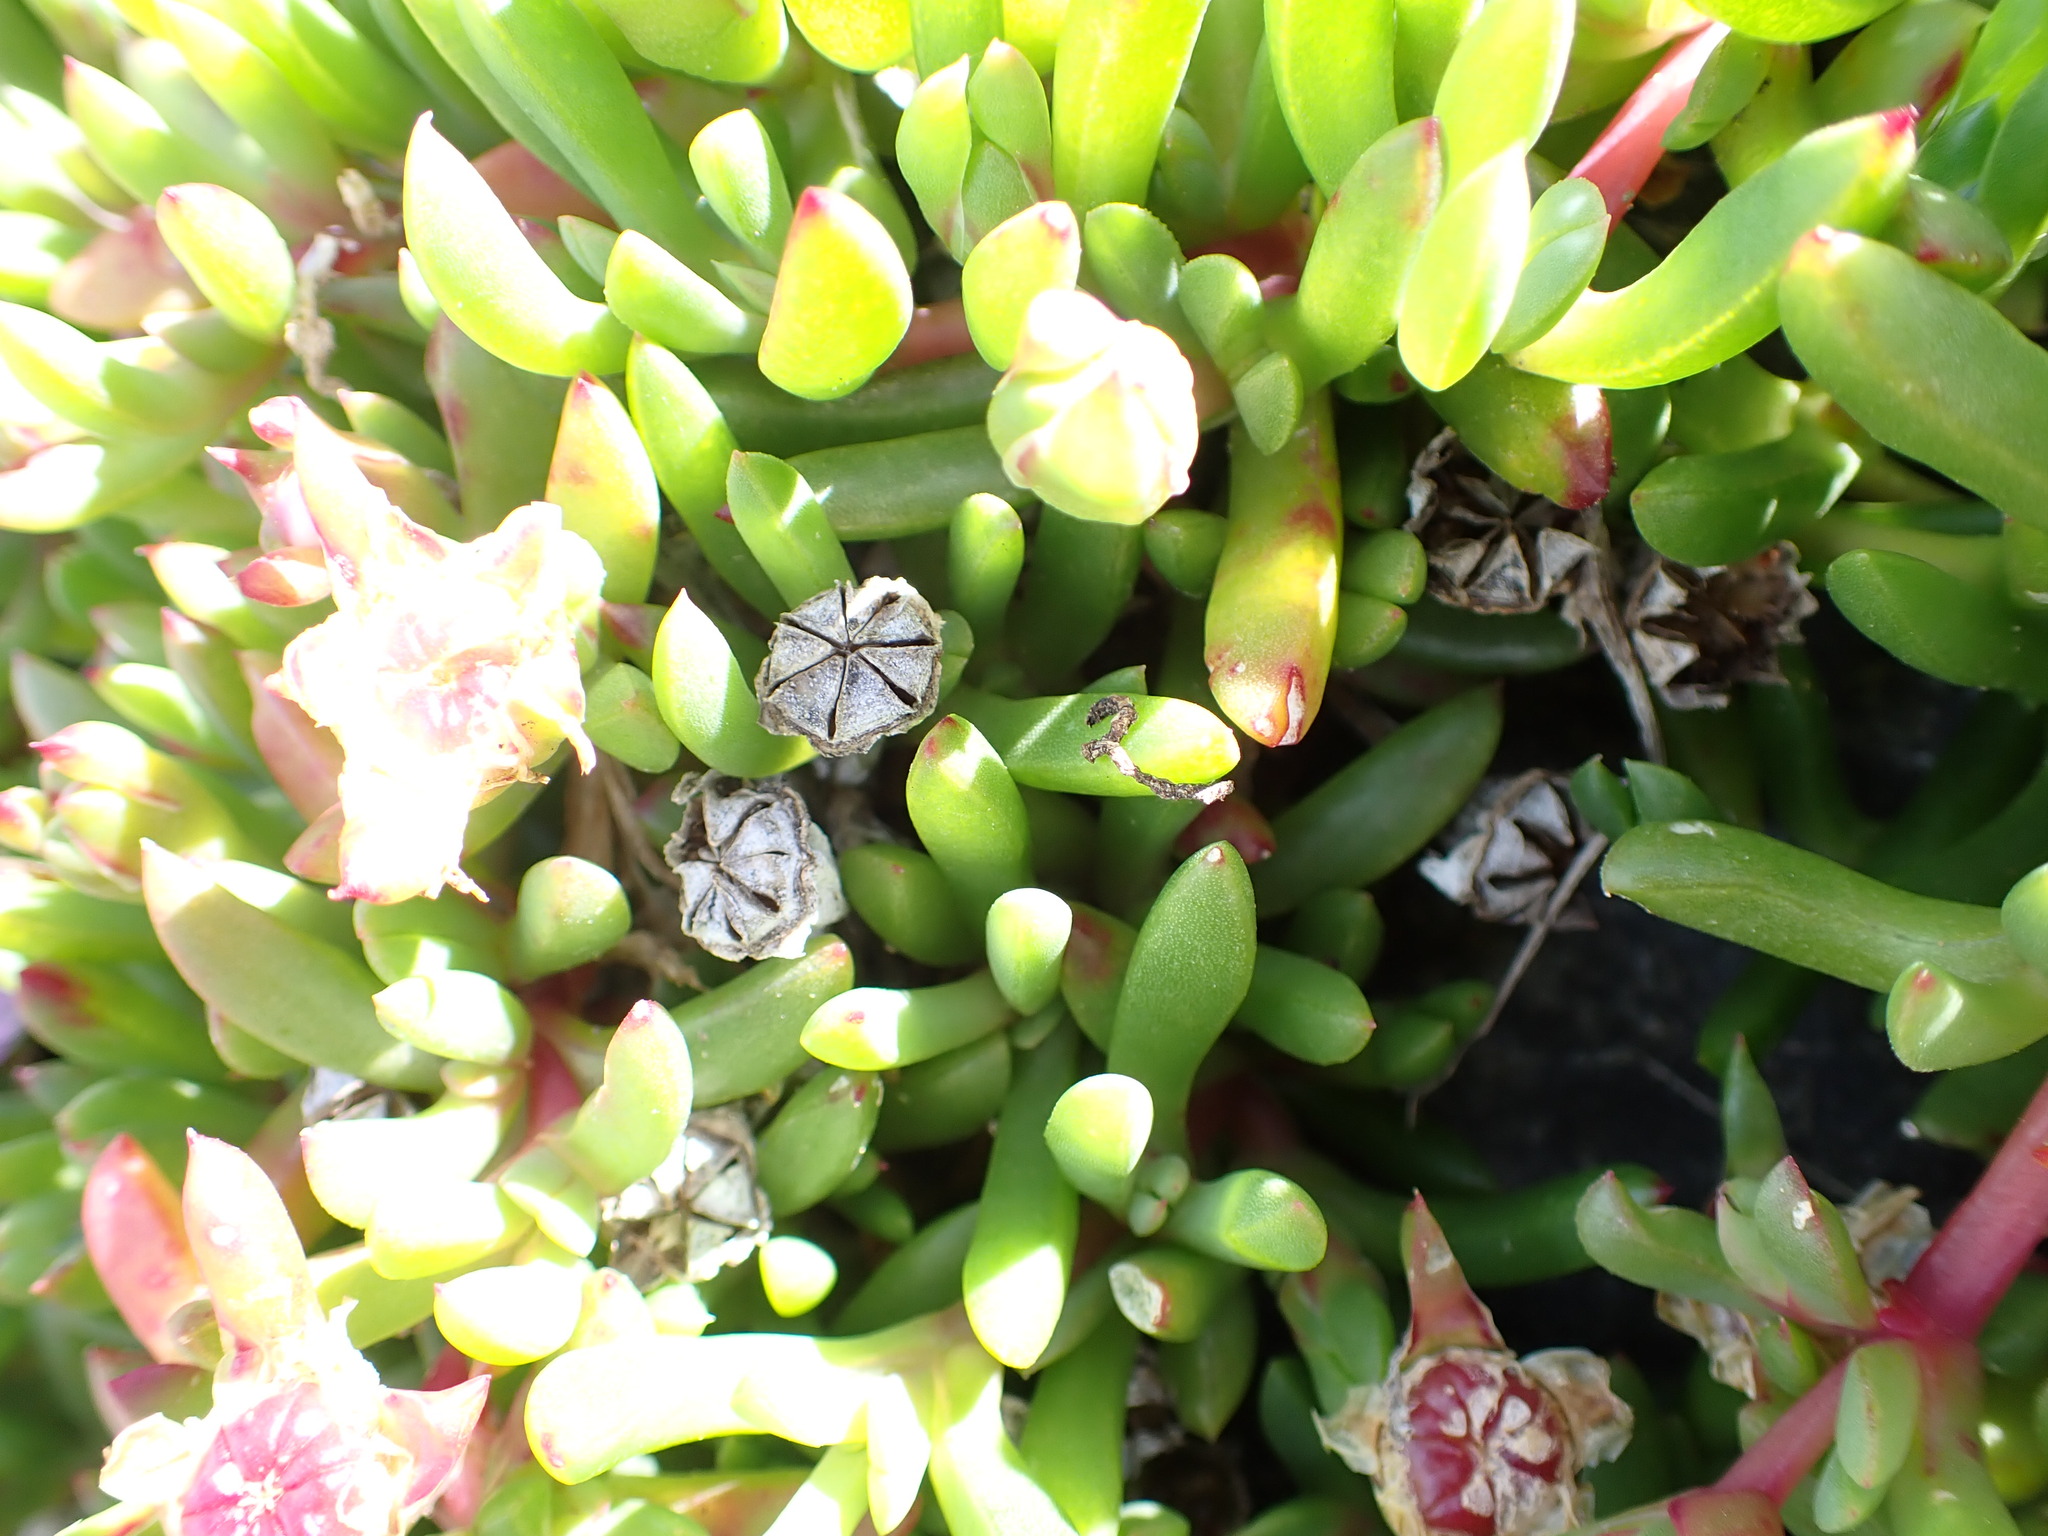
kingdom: Plantae
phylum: Tracheophyta
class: Magnoliopsida
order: Caryophyllales
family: Aizoaceae
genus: Disphyma
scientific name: Disphyma australe
